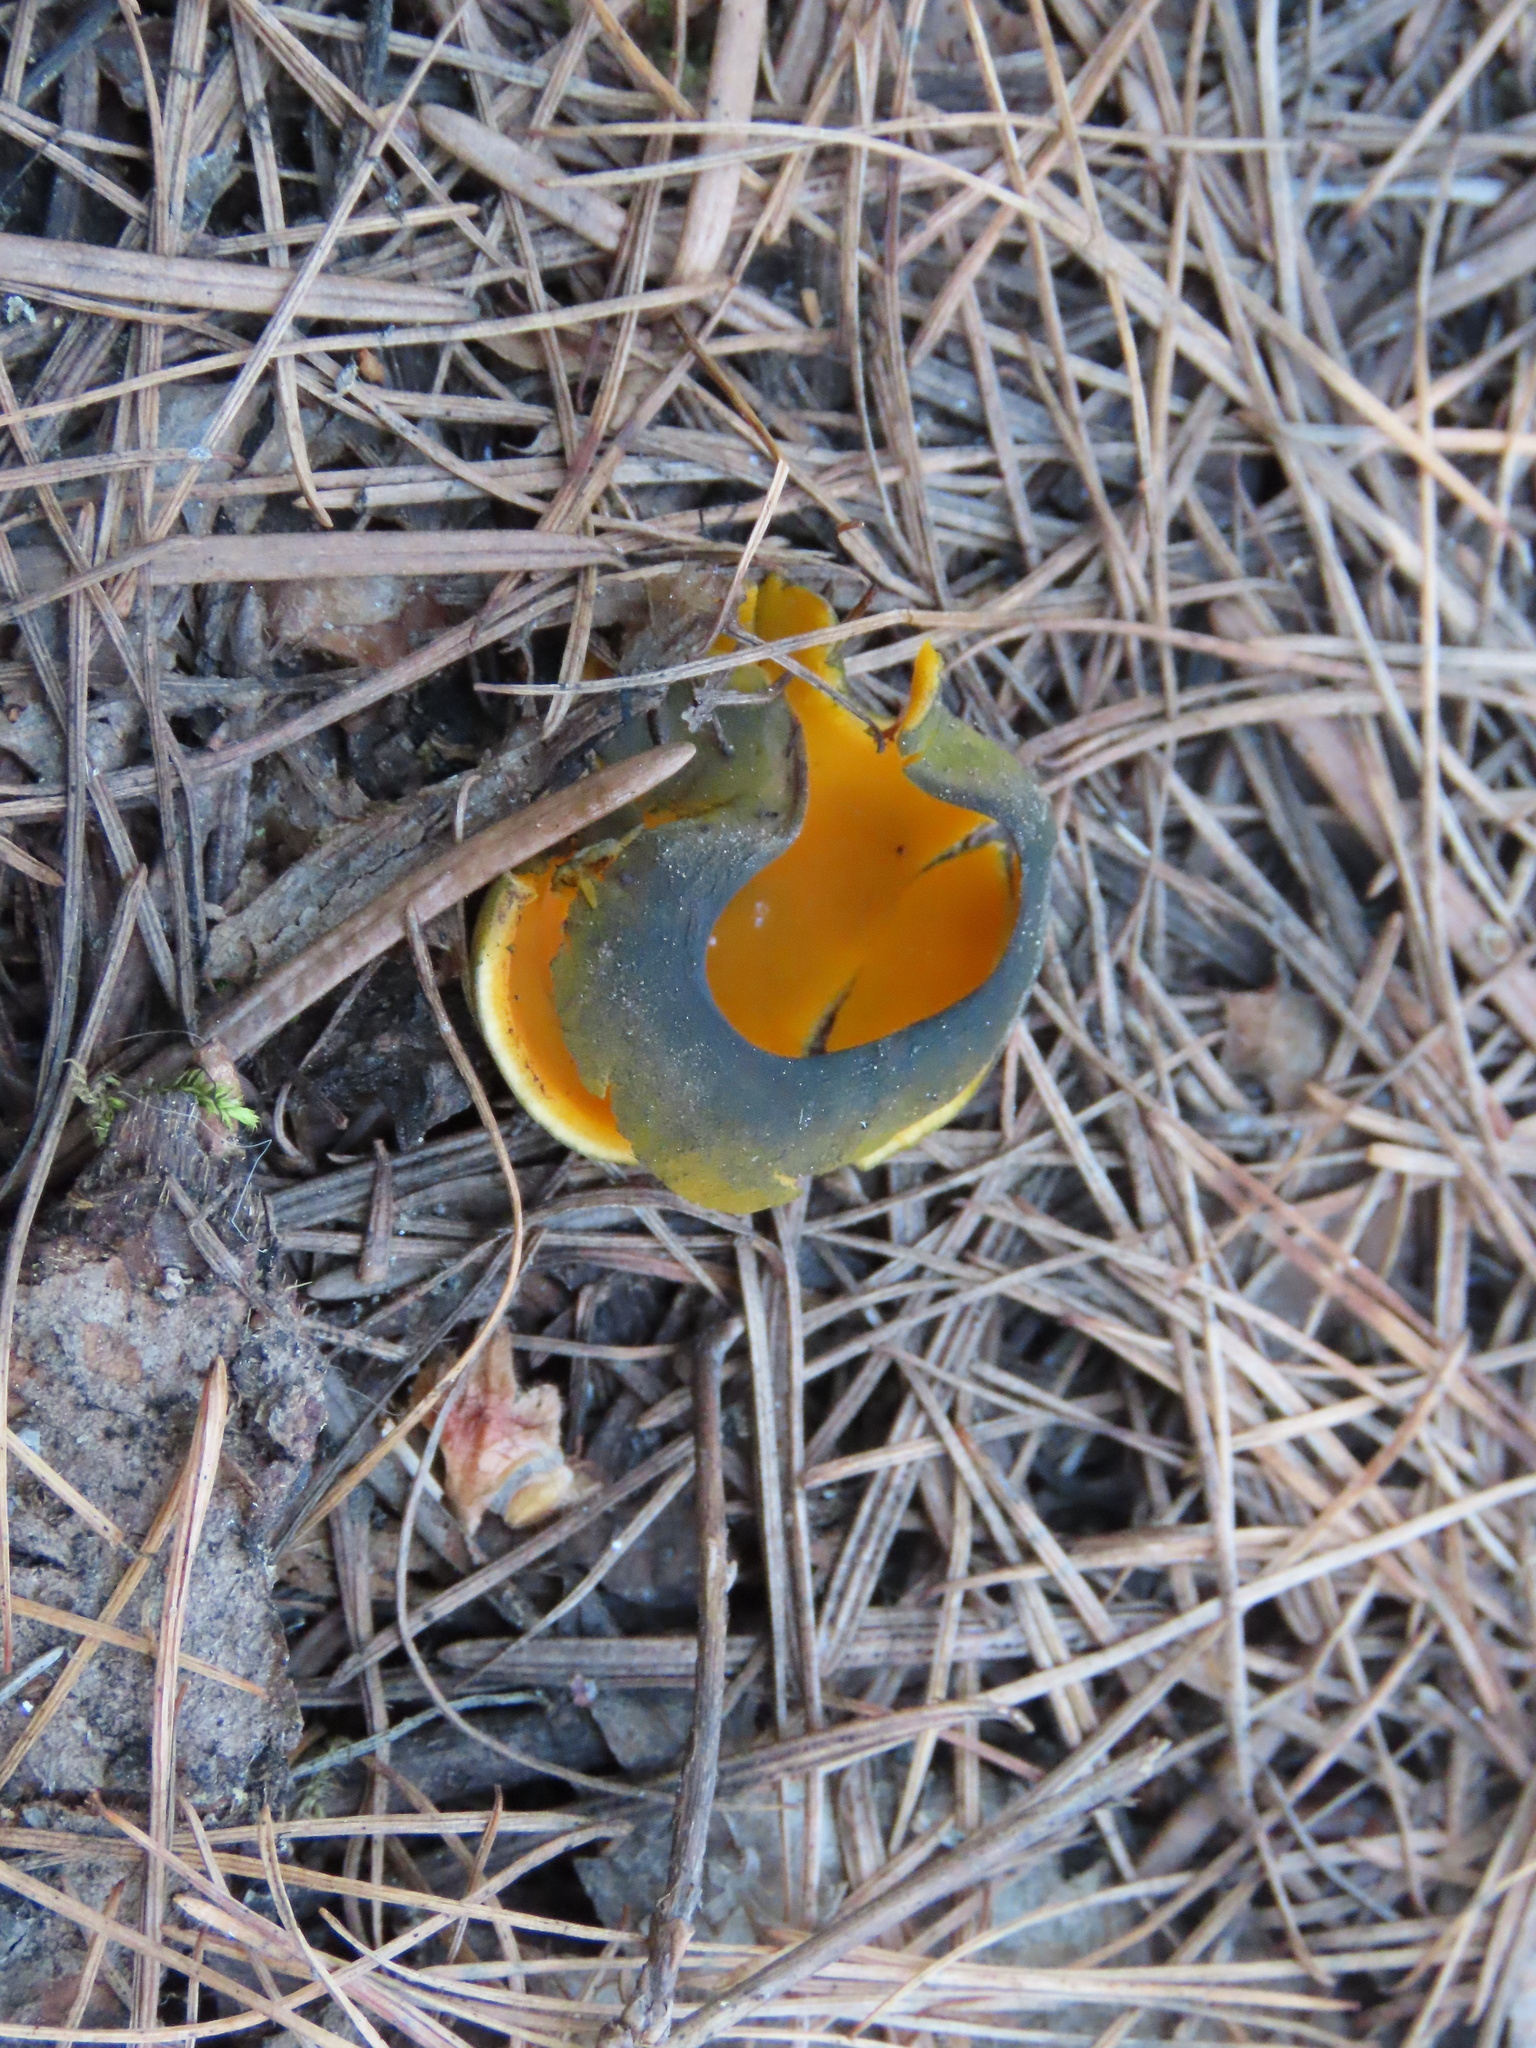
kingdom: Fungi
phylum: Ascomycota
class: Pezizomycetes
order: Pezizales
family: Caloscyphaceae
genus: Caloscypha
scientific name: Caloscypha fulgens
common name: Golden cup
